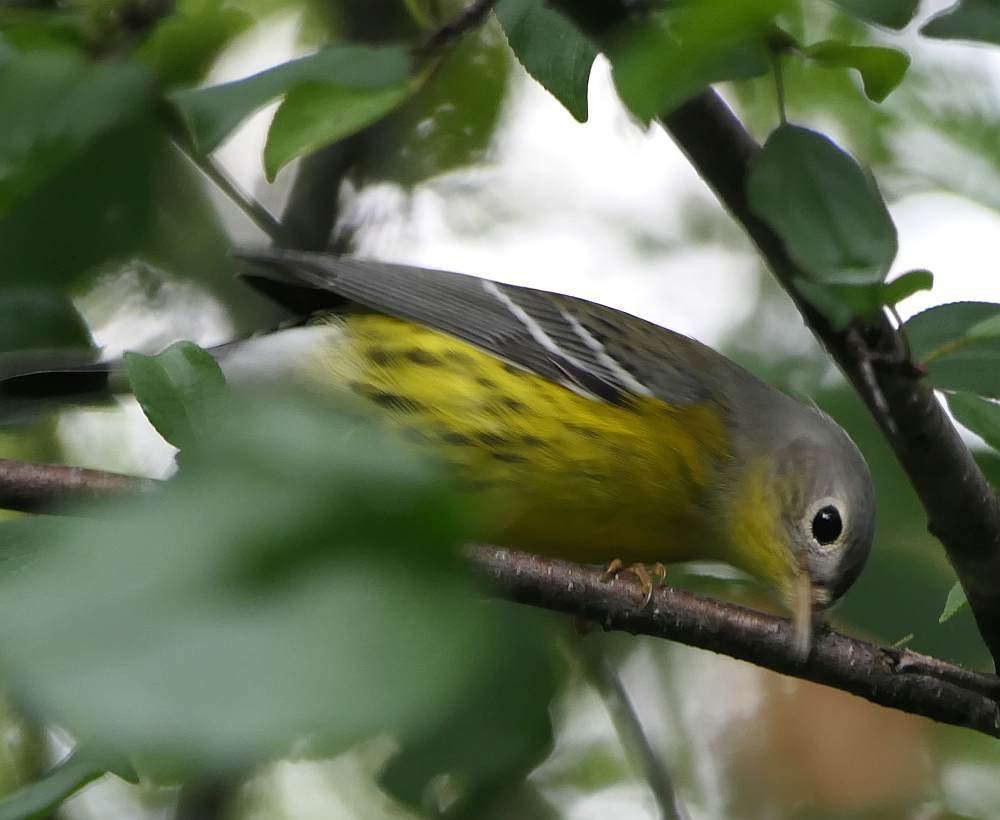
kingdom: Animalia
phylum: Chordata
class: Aves
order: Passeriformes
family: Parulidae
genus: Setophaga
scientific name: Setophaga magnolia
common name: Magnolia warbler
